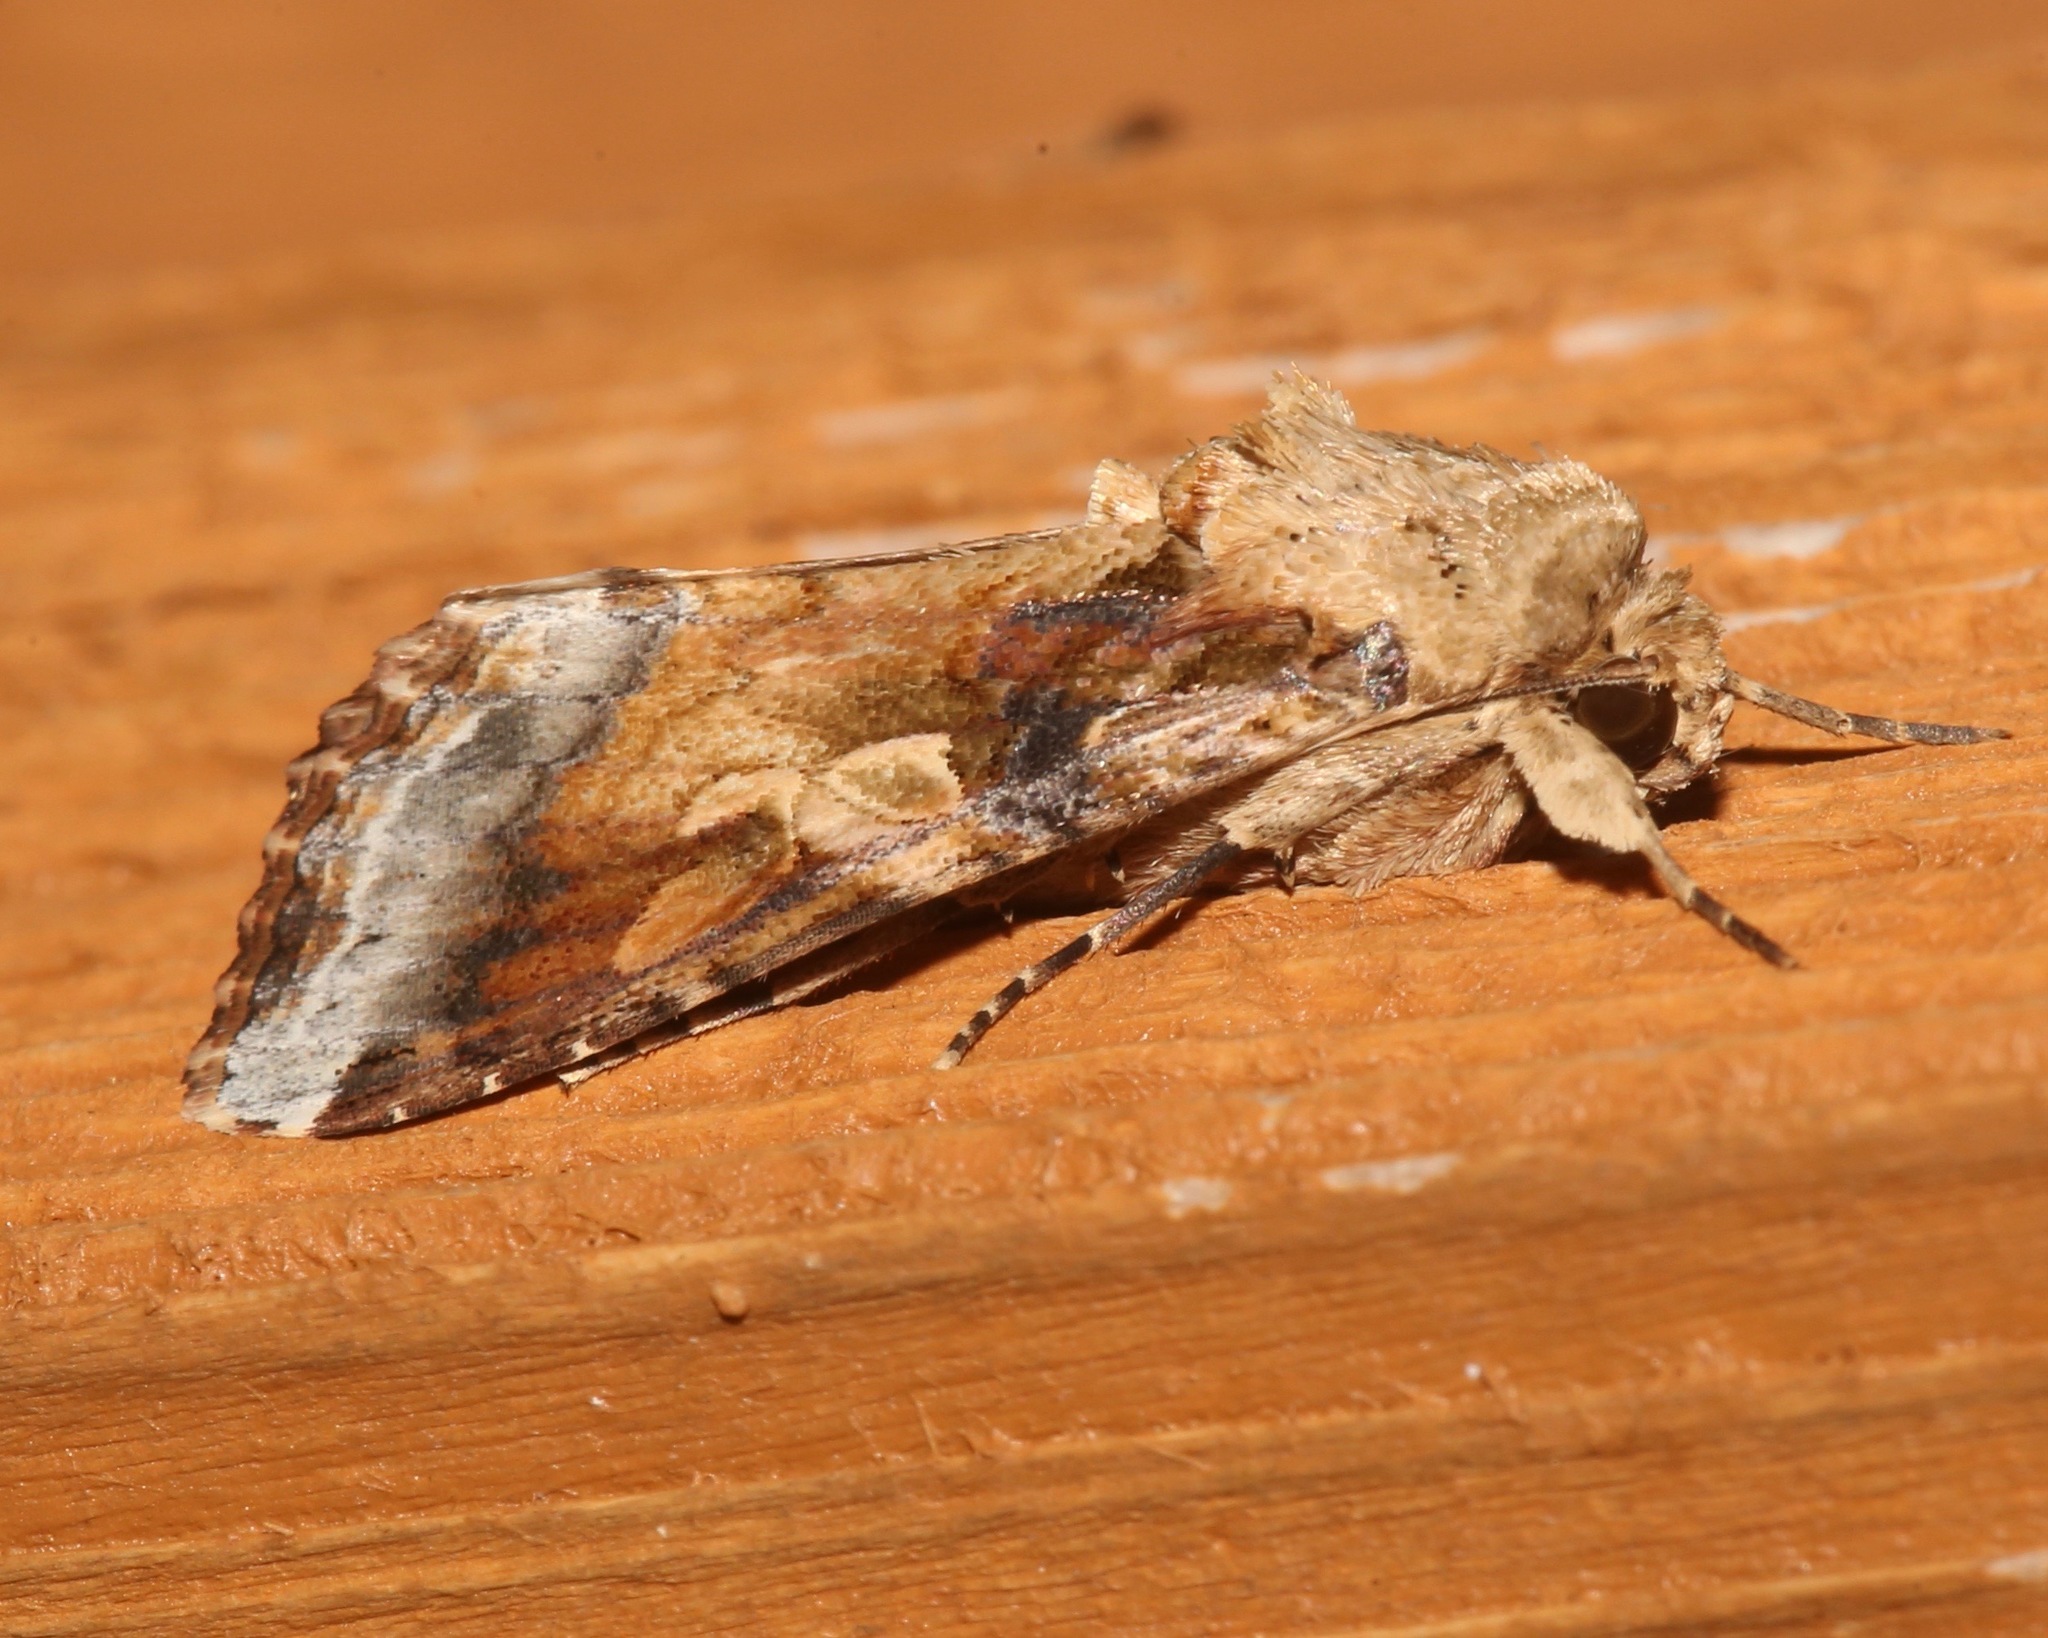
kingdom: Animalia
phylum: Arthropoda
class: Insecta
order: Lepidoptera
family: Noctuidae
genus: Spodoptera
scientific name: Spodoptera latifascia
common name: Velvet armyworm moth
